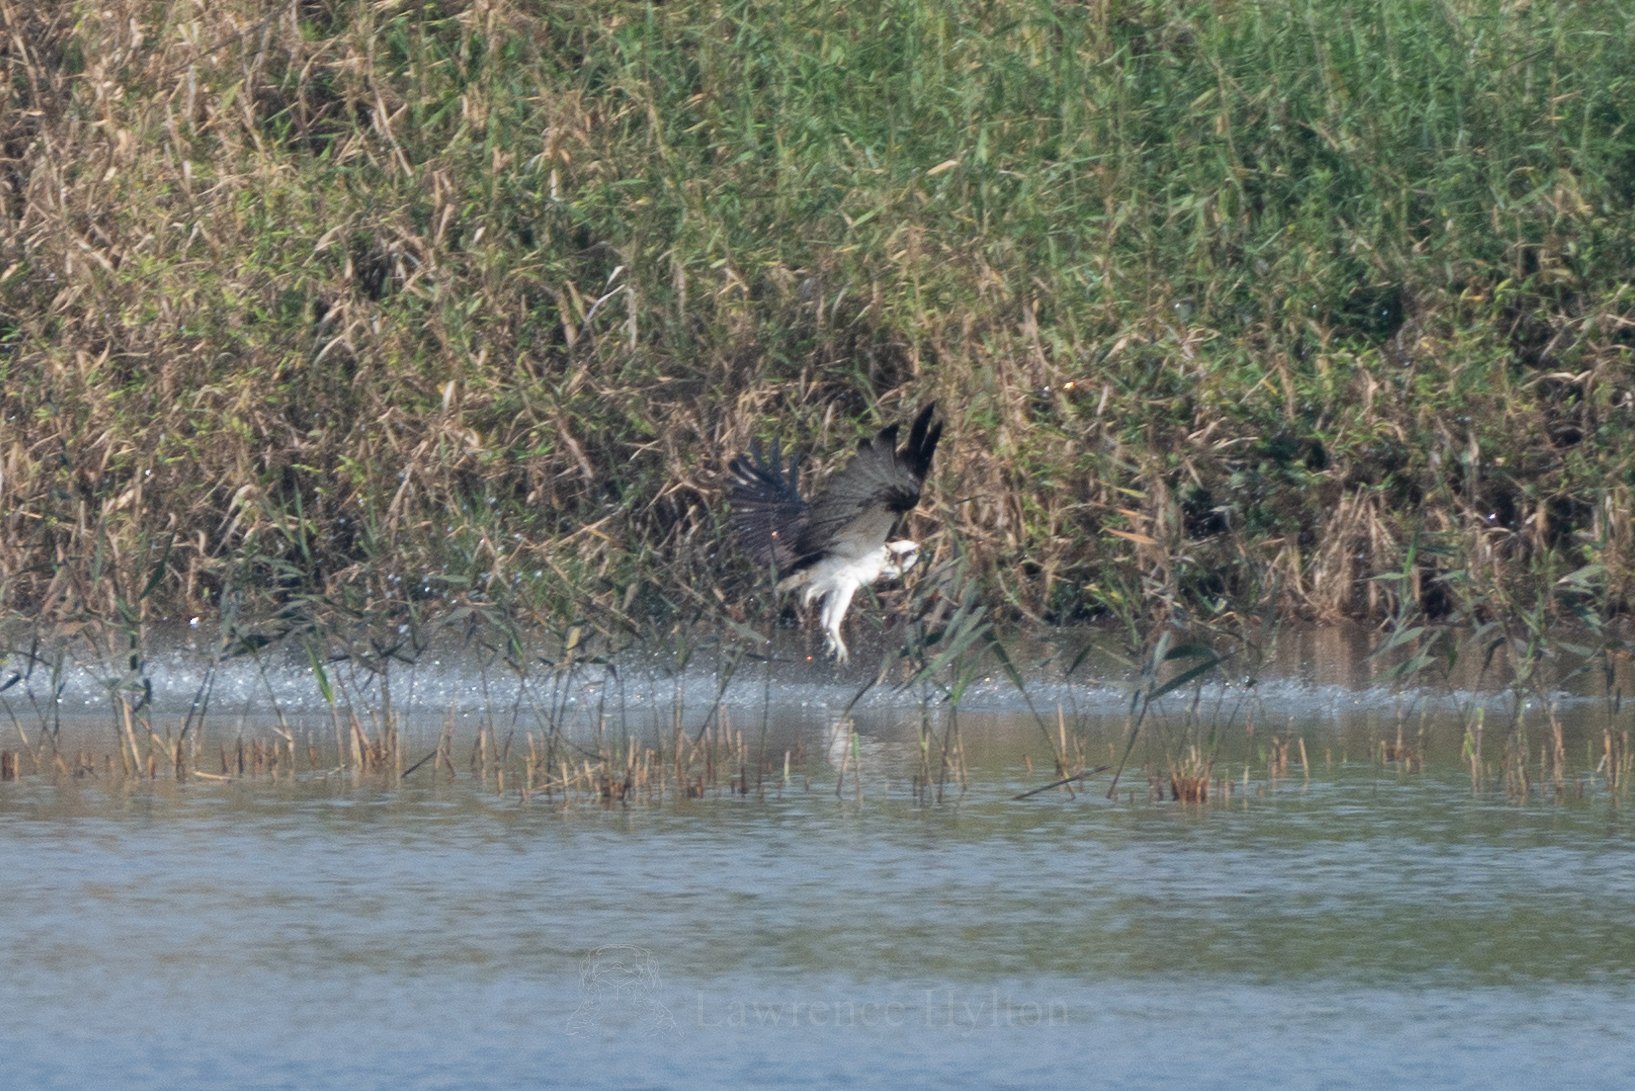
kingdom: Animalia
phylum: Chordata
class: Aves
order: Accipitriformes
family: Pandionidae
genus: Pandion
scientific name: Pandion haliaetus
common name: Osprey
